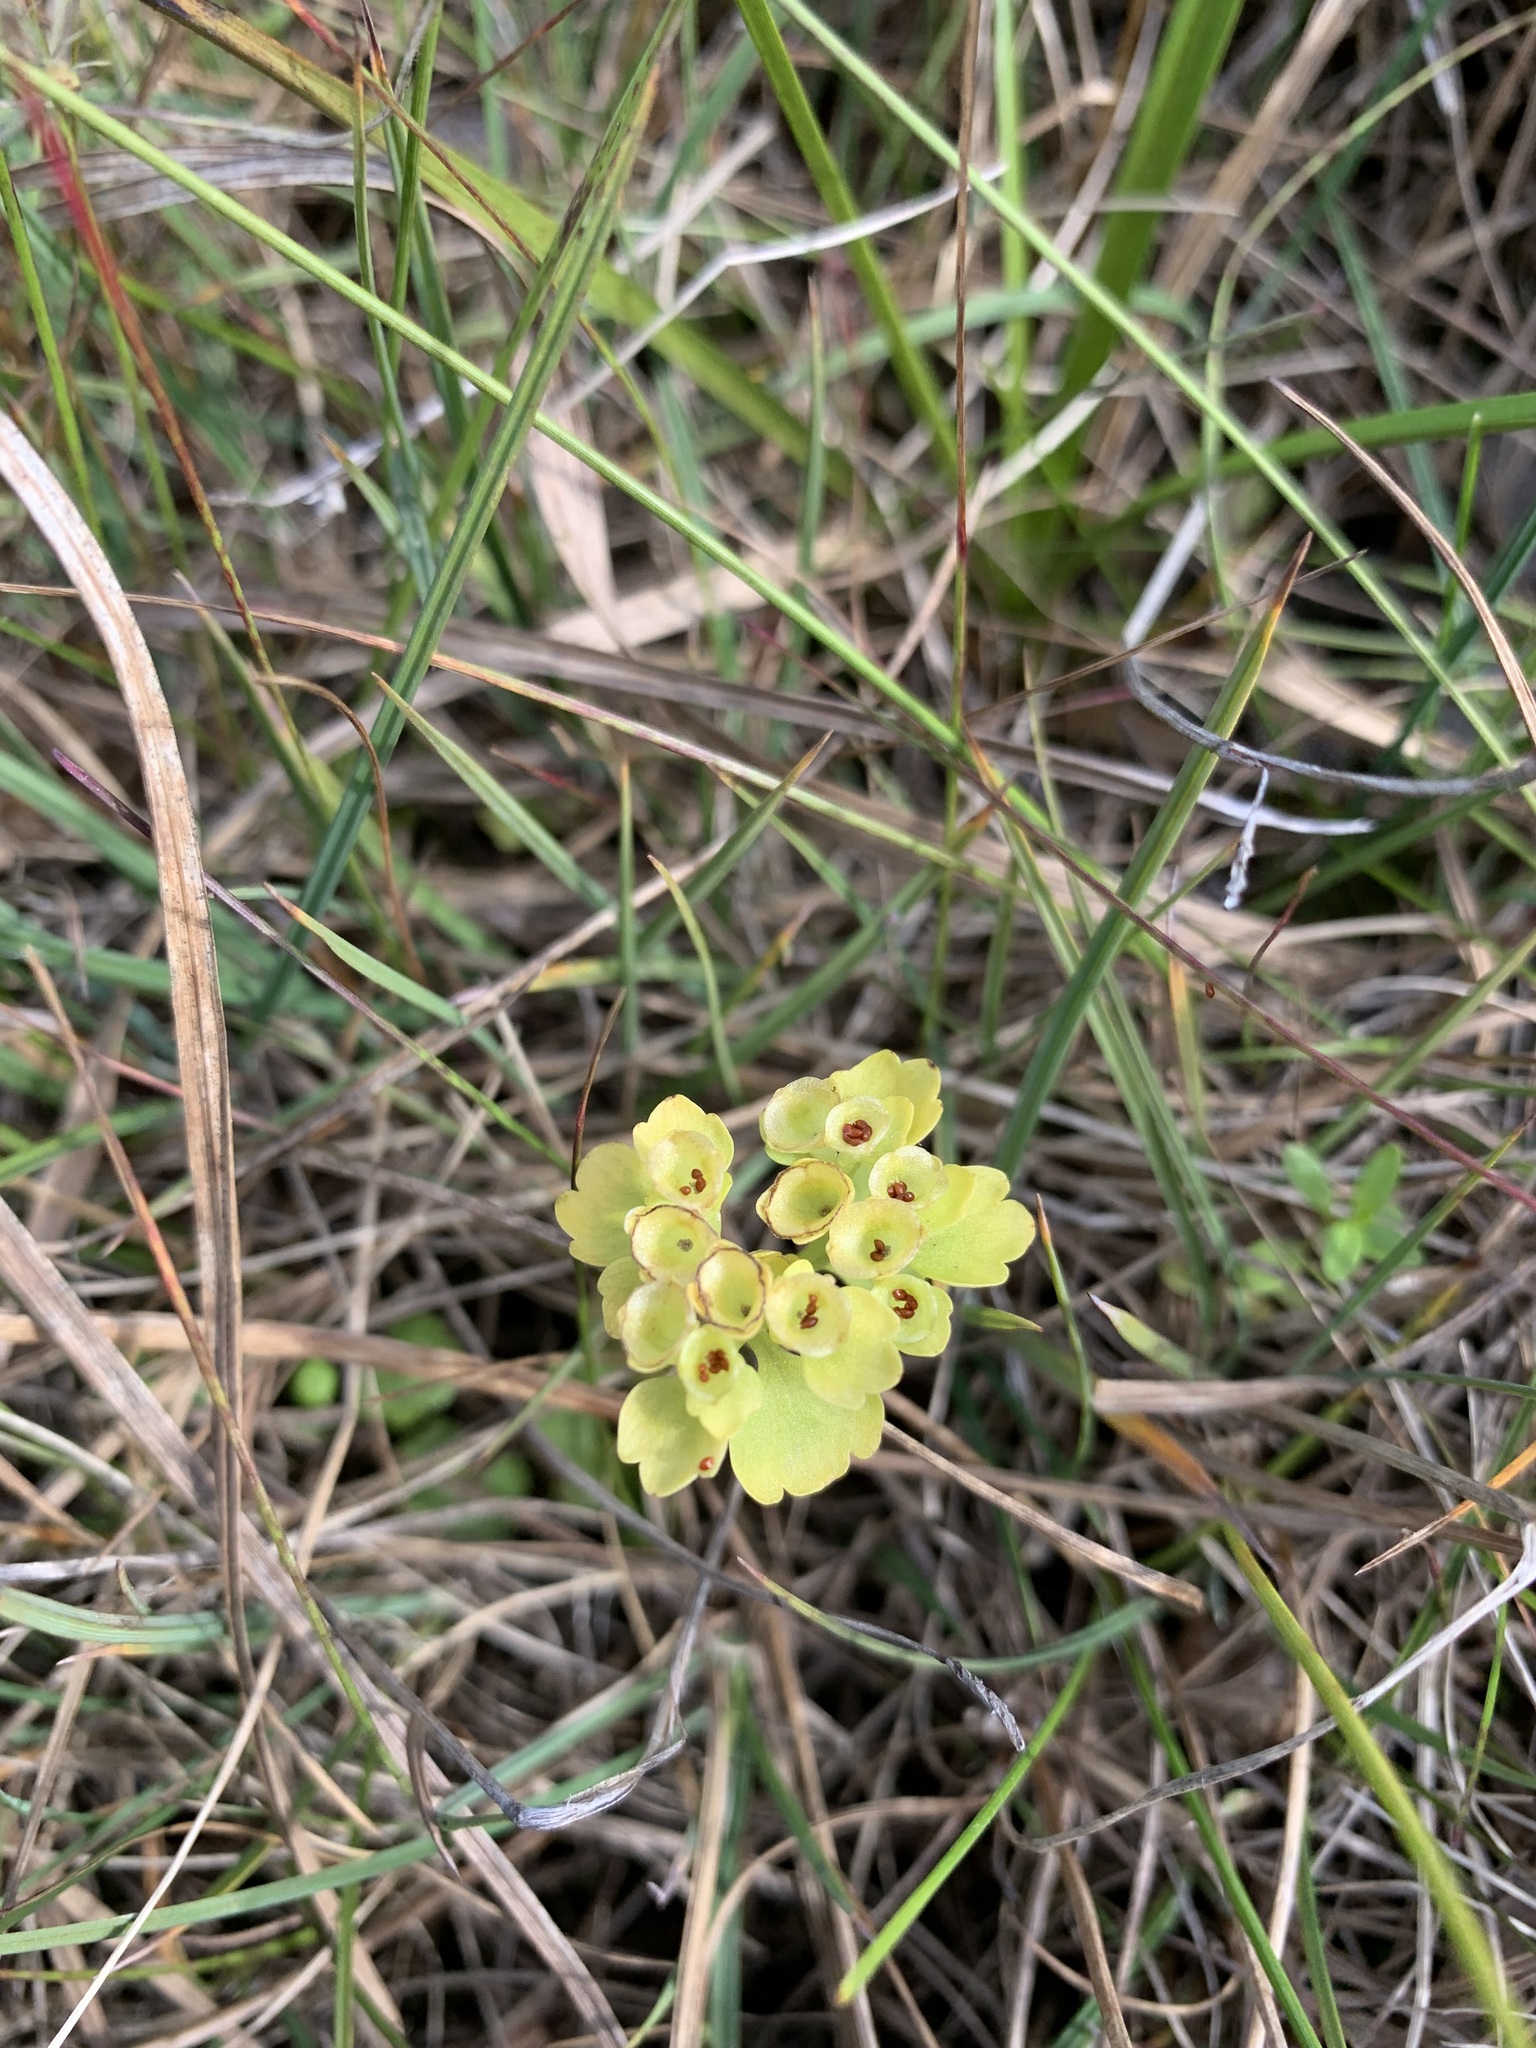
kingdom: Plantae
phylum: Tracheophyta
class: Magnoliopsida
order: Saxifragales
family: Saxifragaceae
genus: Chrysosplenium
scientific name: Chrysosplenium tetrandrum
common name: Green saxifrage
